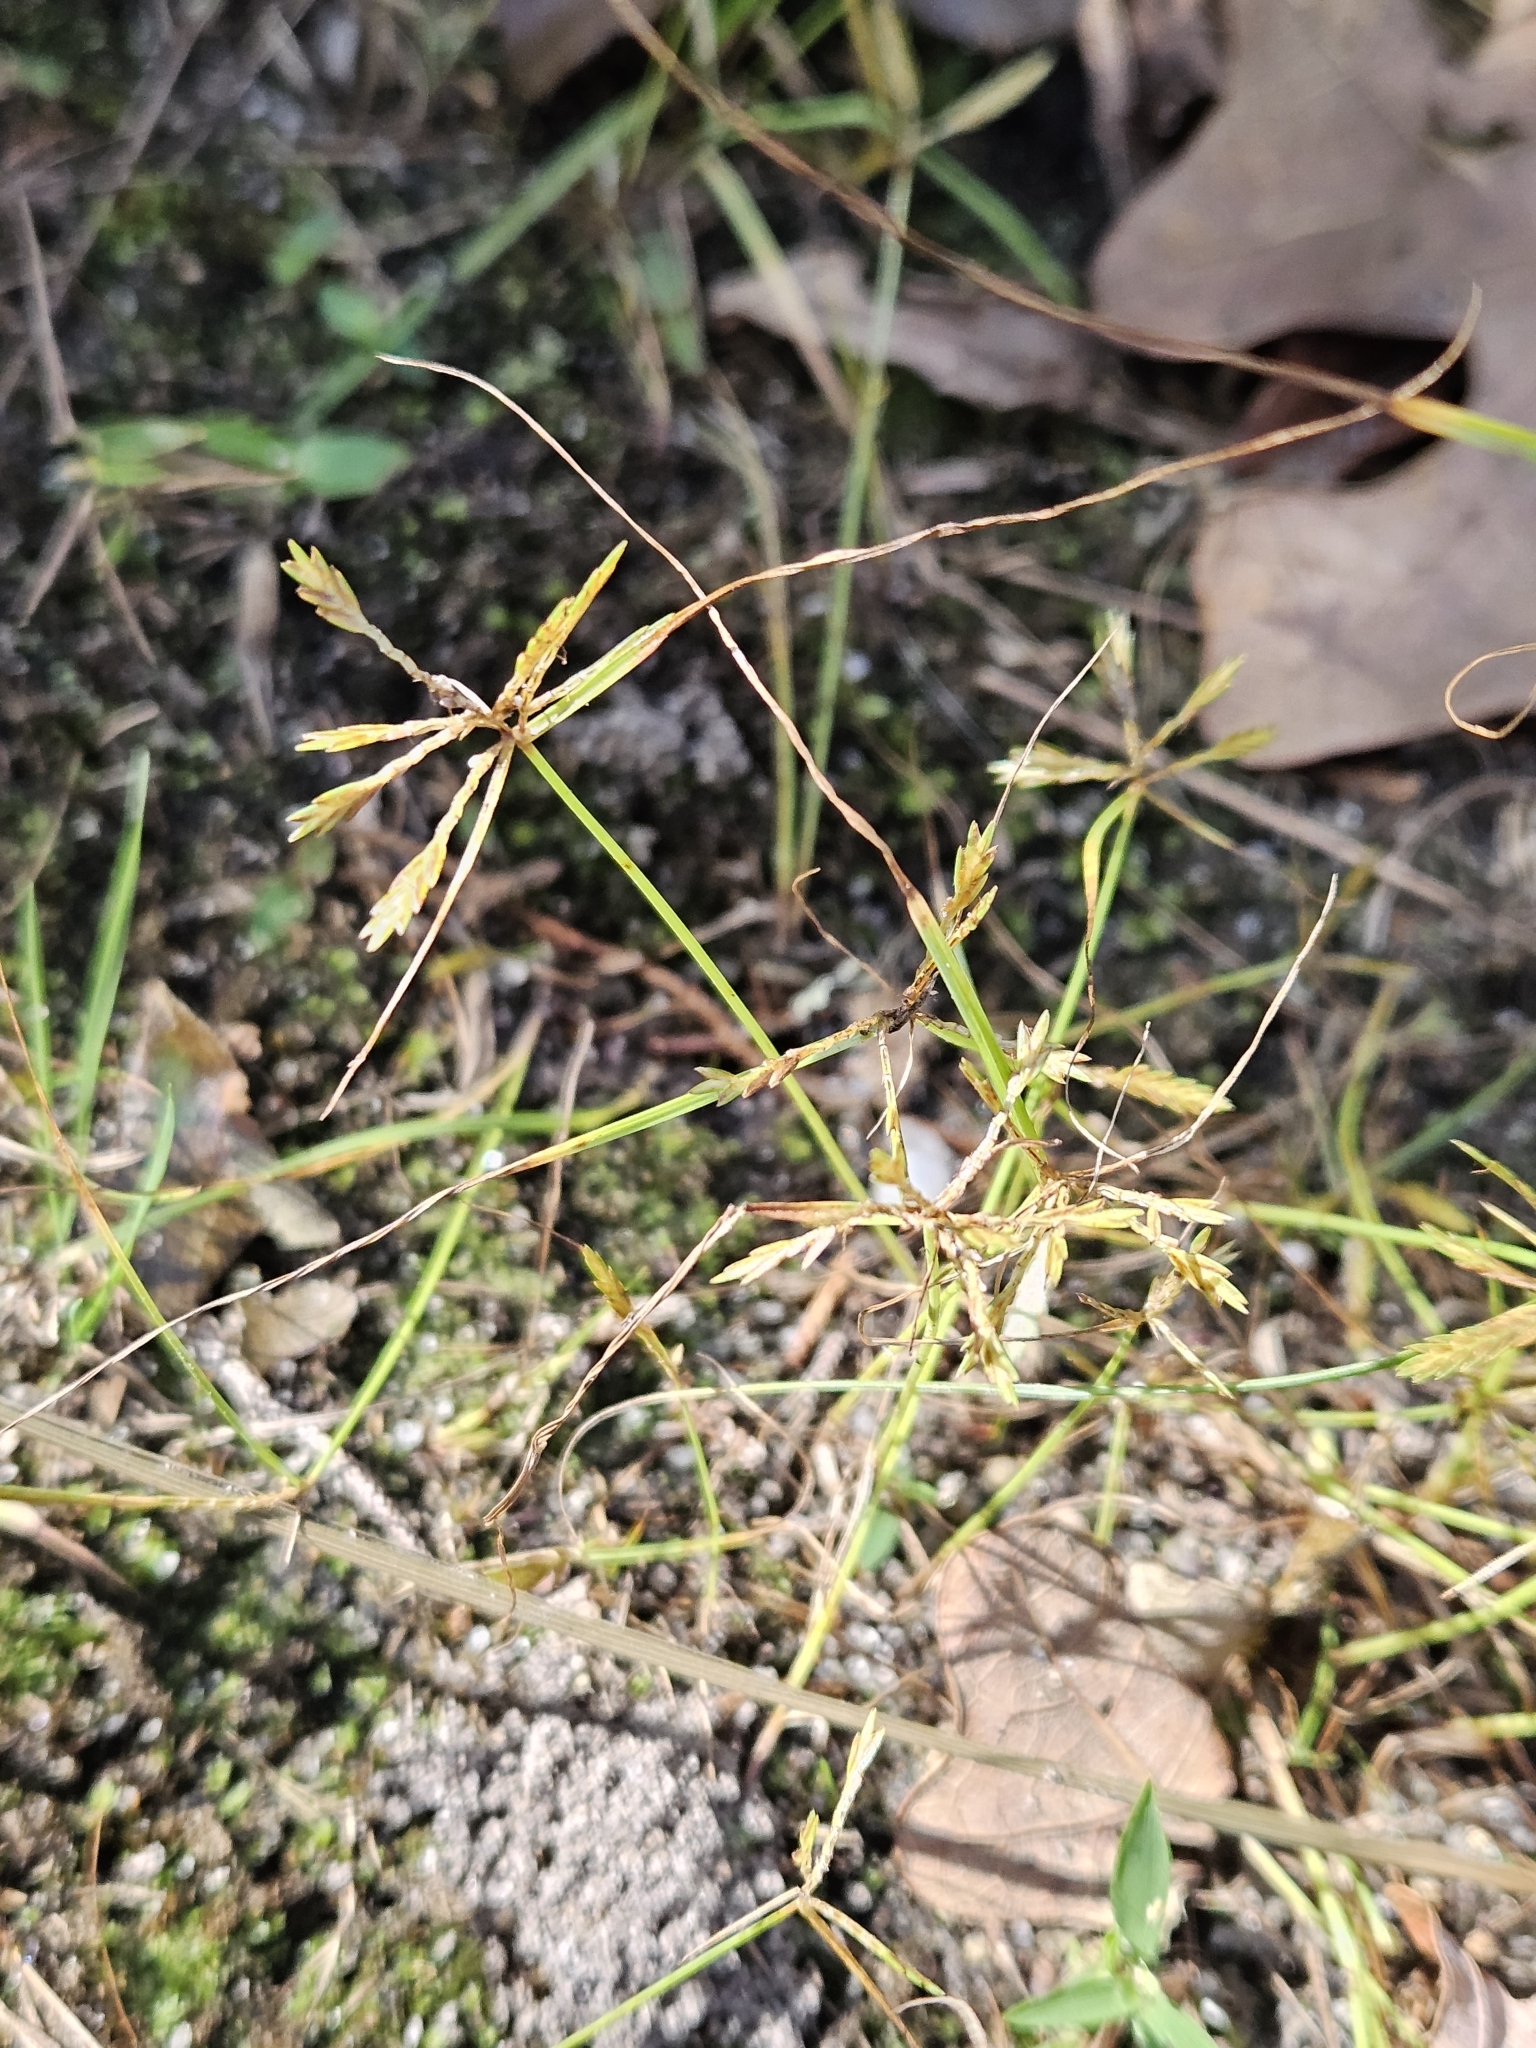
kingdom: Plantae
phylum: Tracheophyta
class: Liliopsida
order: Poales
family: Cyperaceae
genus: Cyperus
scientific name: Cyperus filicinus
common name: Fern flatsedge
